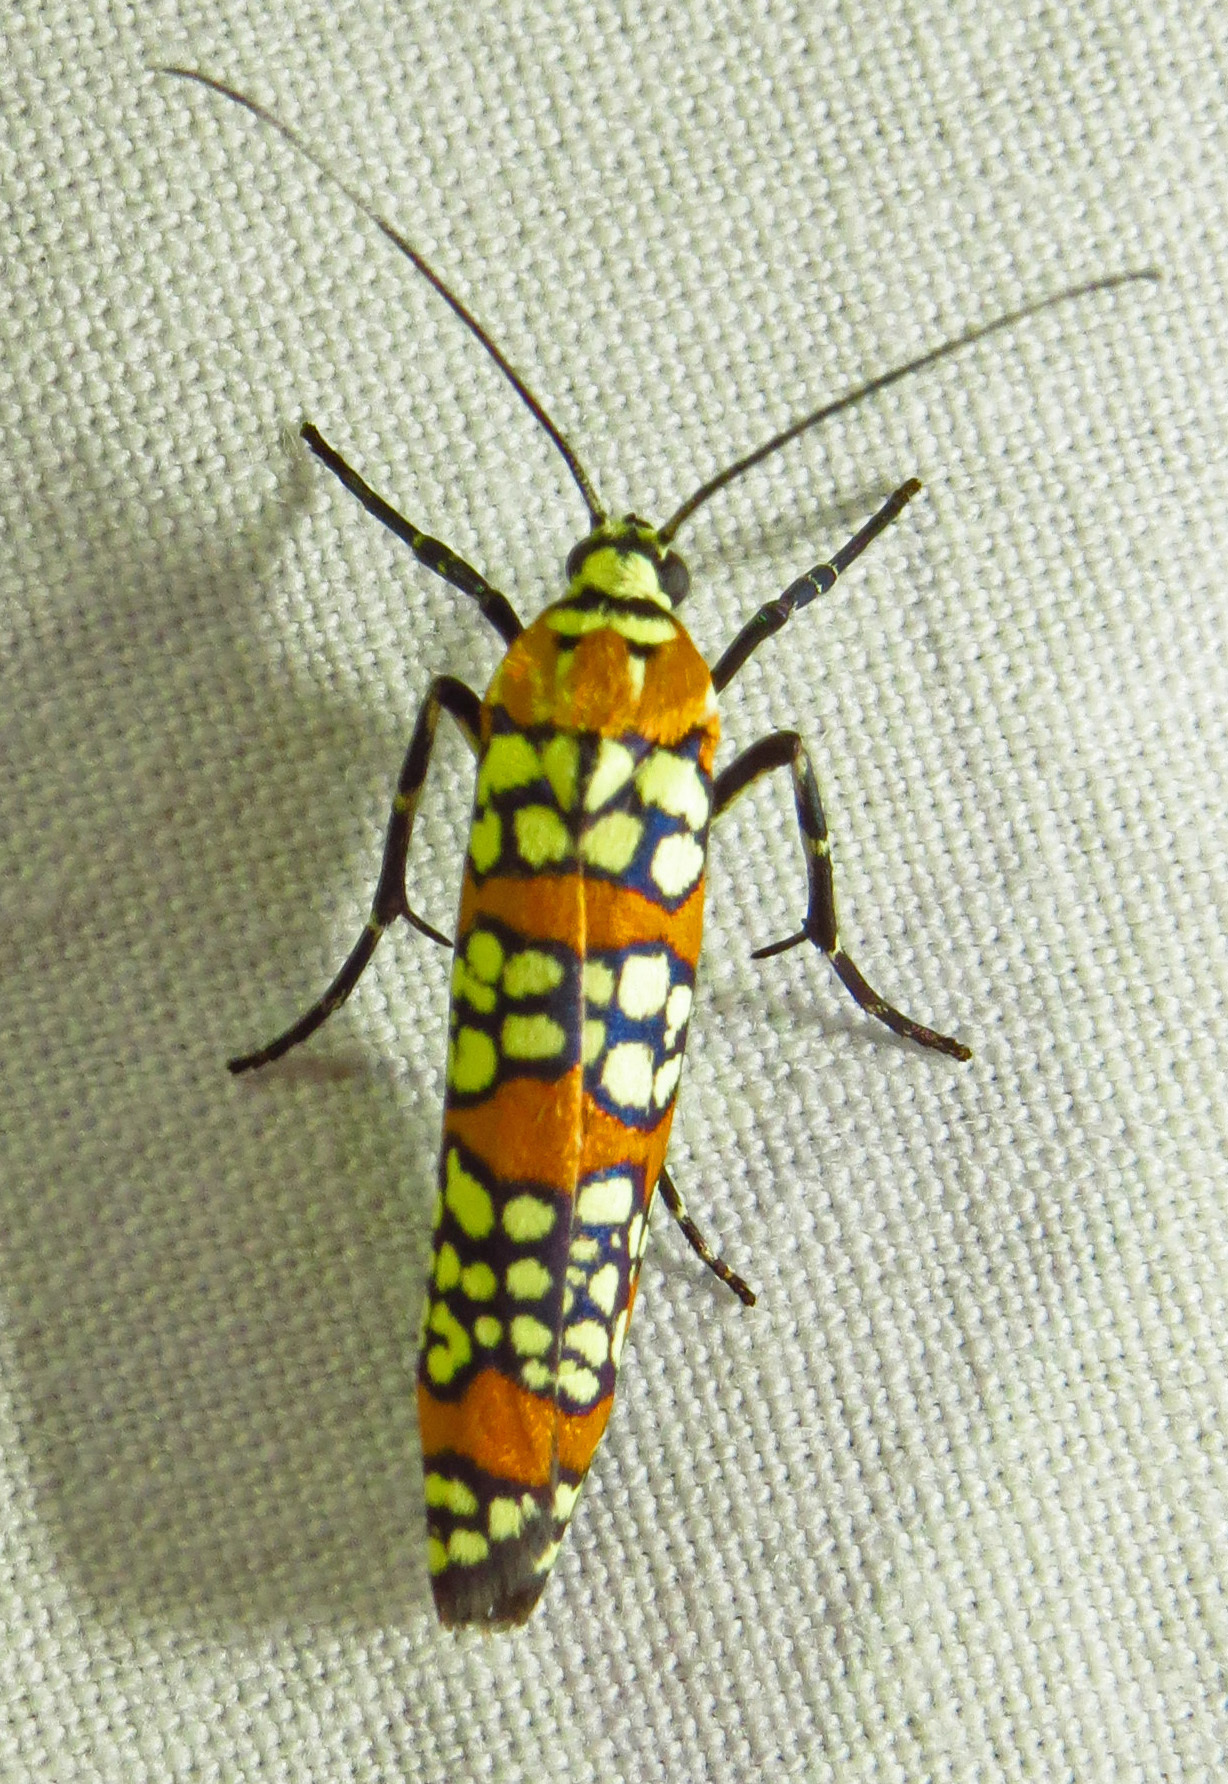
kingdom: Animalia
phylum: Arthropoda
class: Insecta
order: Lepidoptera
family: Attevidae
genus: Atteva
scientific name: Atteva punctella
